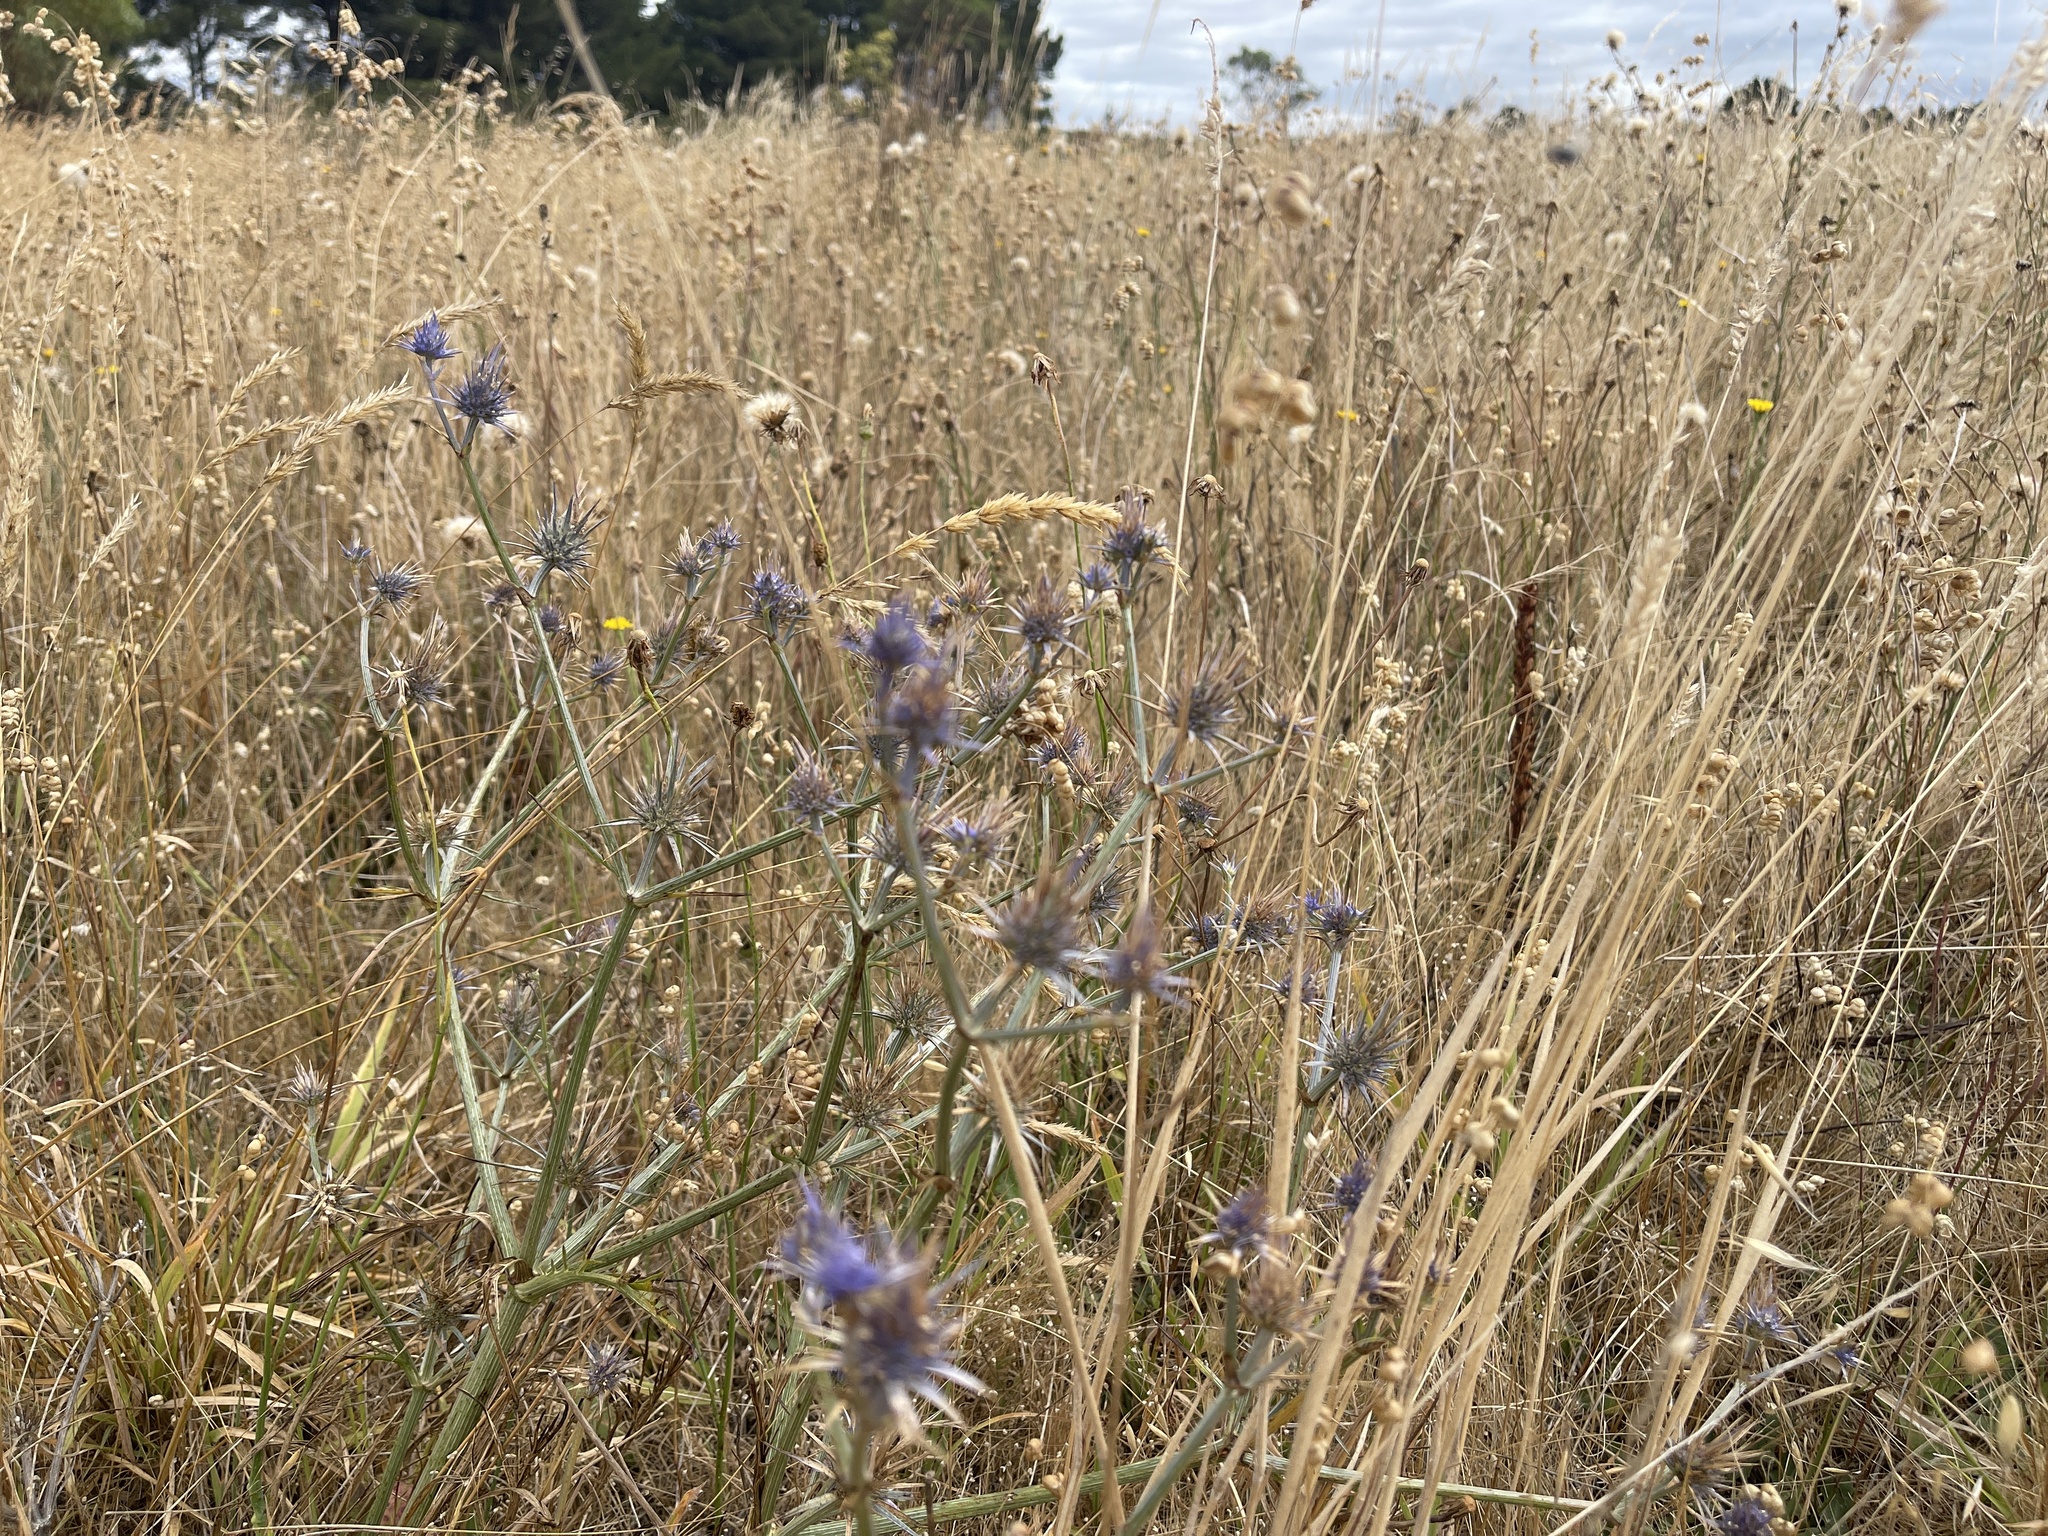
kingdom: Plantae
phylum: Tracheophyta
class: Magnoliopsida
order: Apiales
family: Apiaceae
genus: Eryngium
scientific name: Eryngium ovinum
